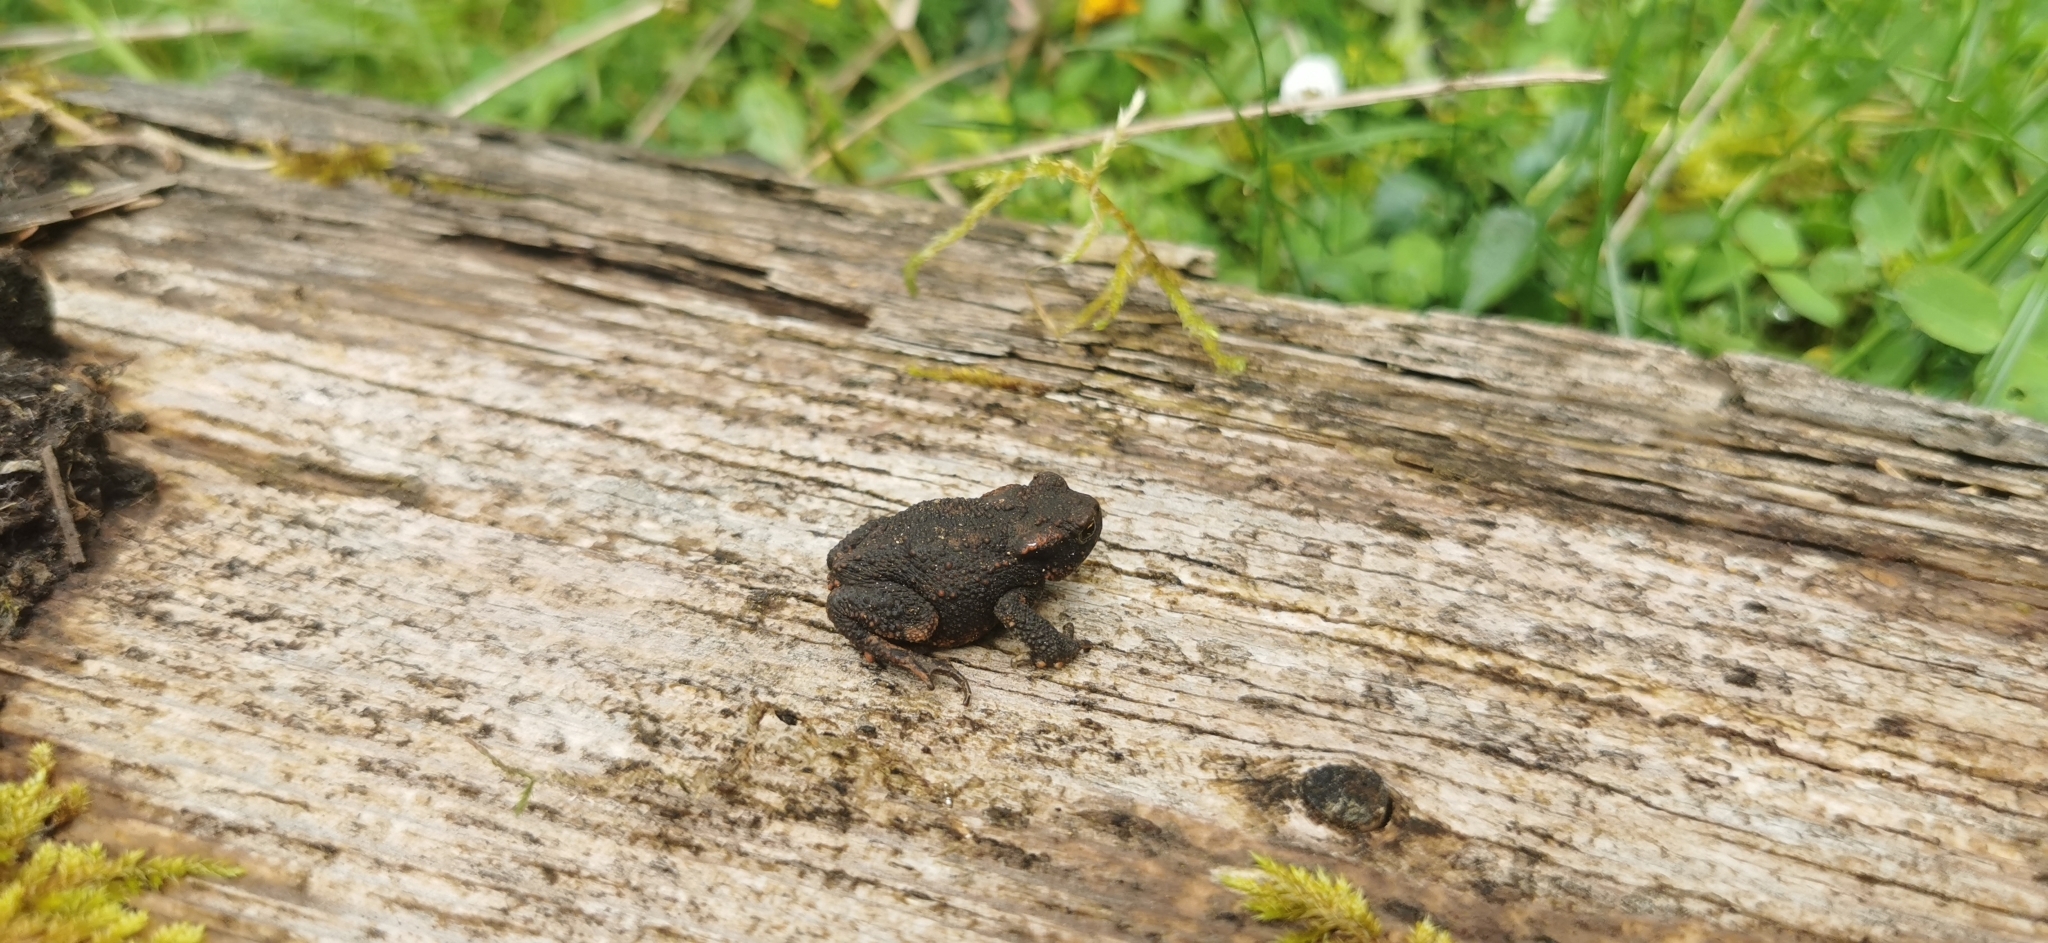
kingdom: Animalia
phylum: Chordata
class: Amphibia
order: Anura
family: Bufonidae
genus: Bufo
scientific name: Bufo bufo
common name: Common toad
